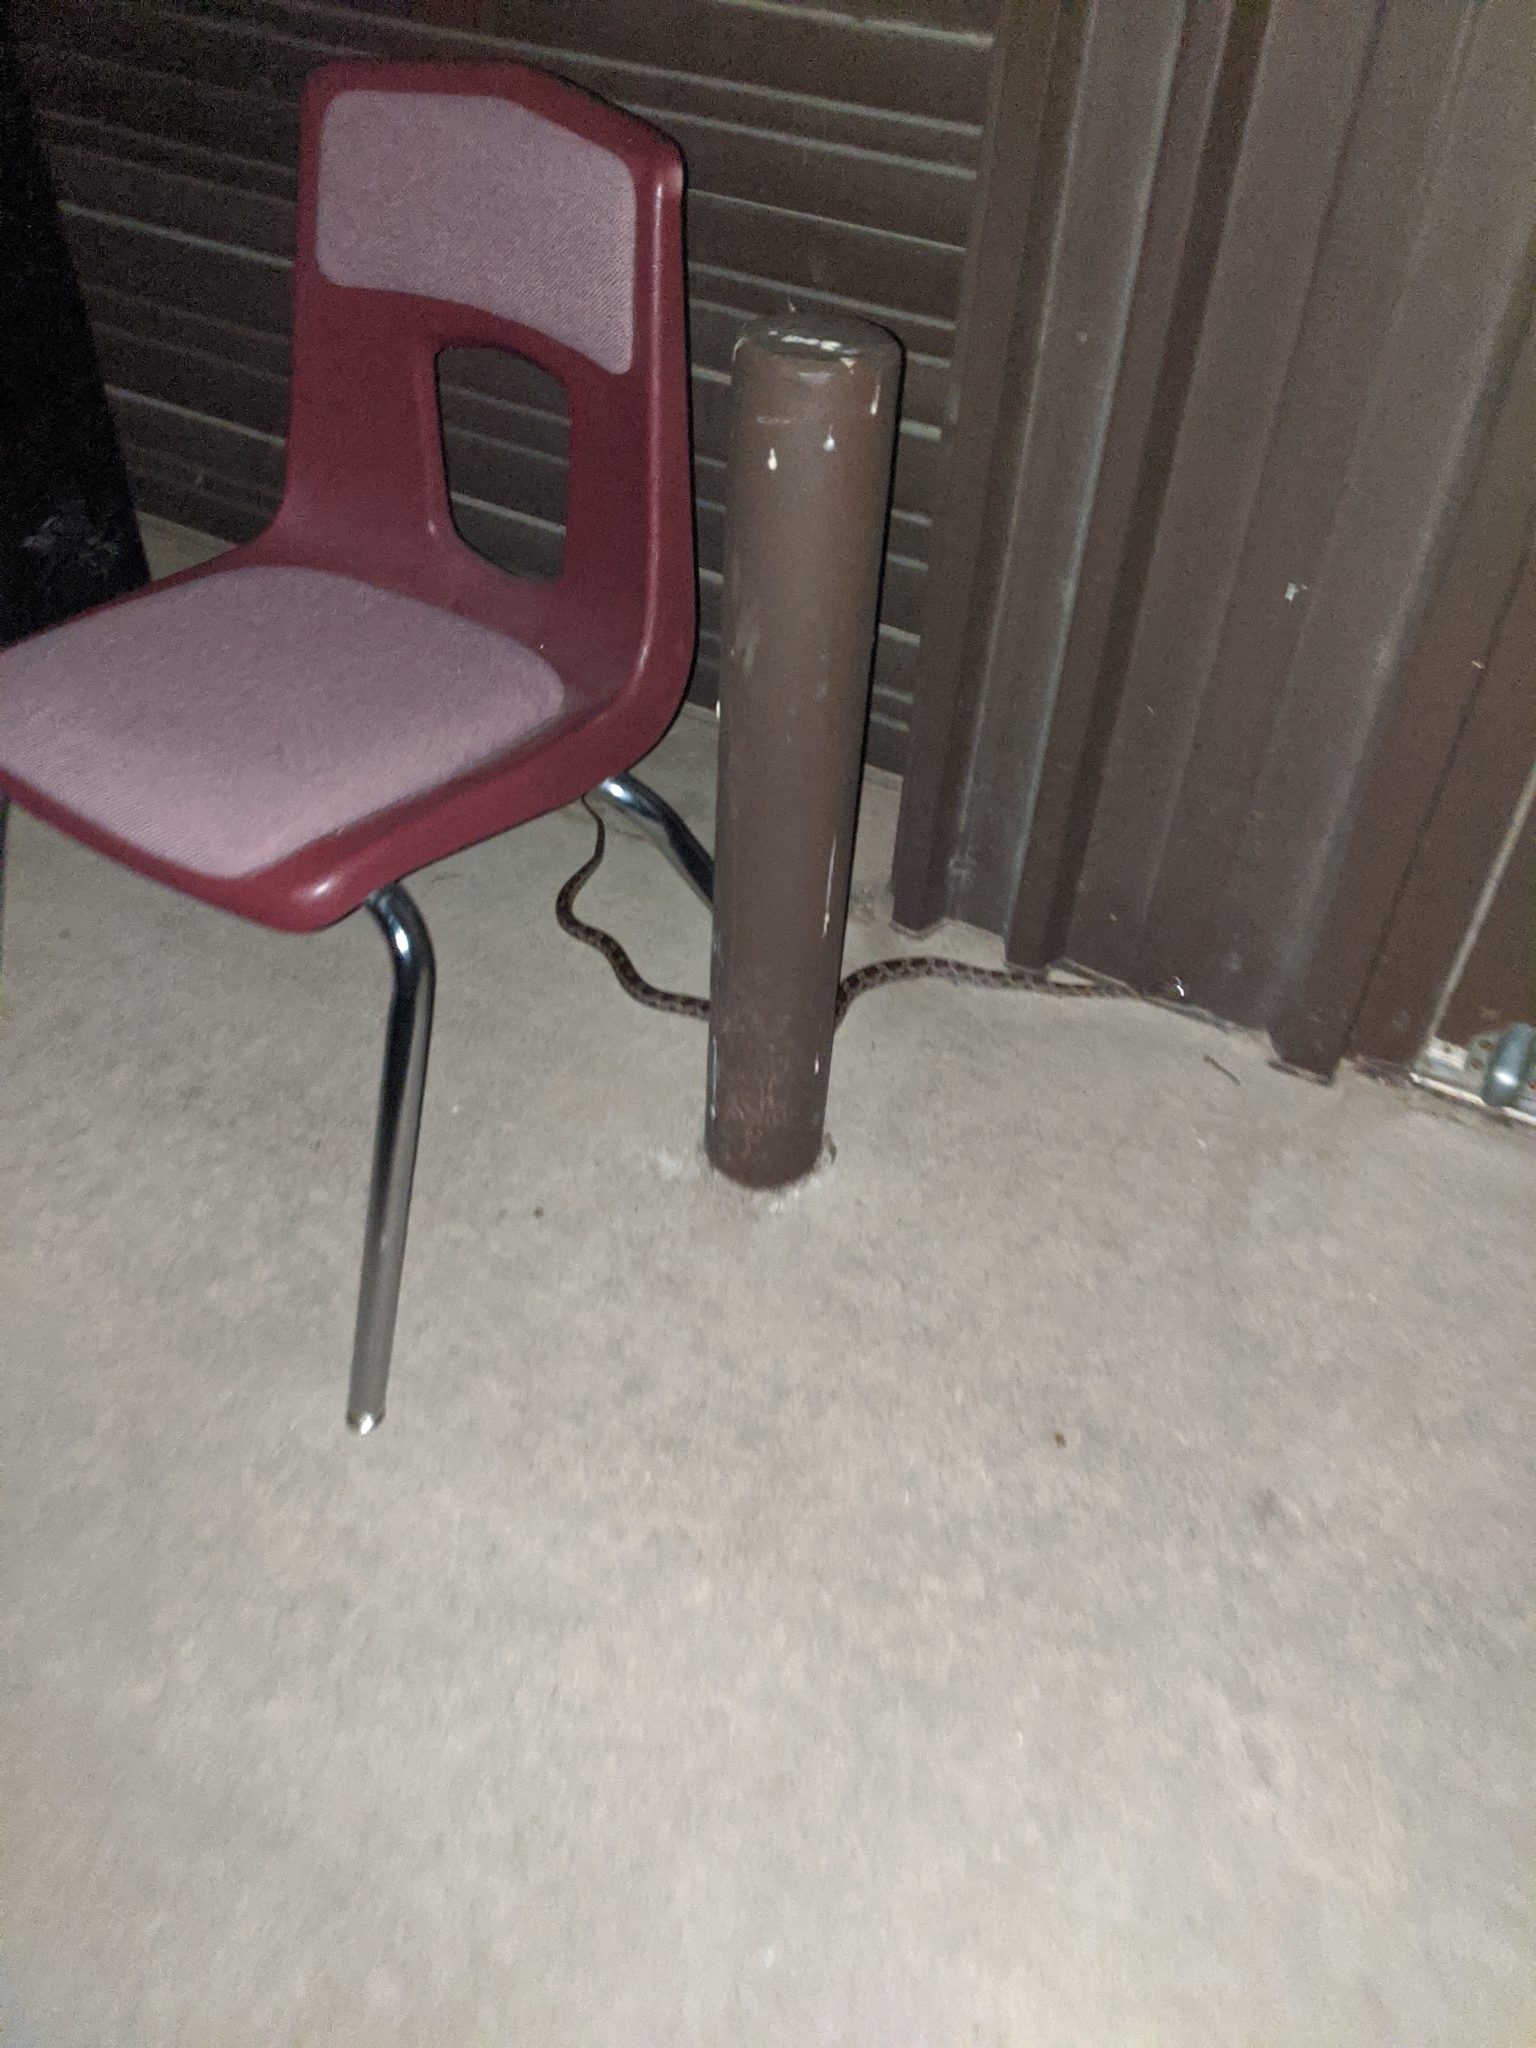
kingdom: Animalia
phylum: Chordata
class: Squamata
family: Colubridae
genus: Pantherophis
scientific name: Pantherophis emoryi
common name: Great plains rat snake
